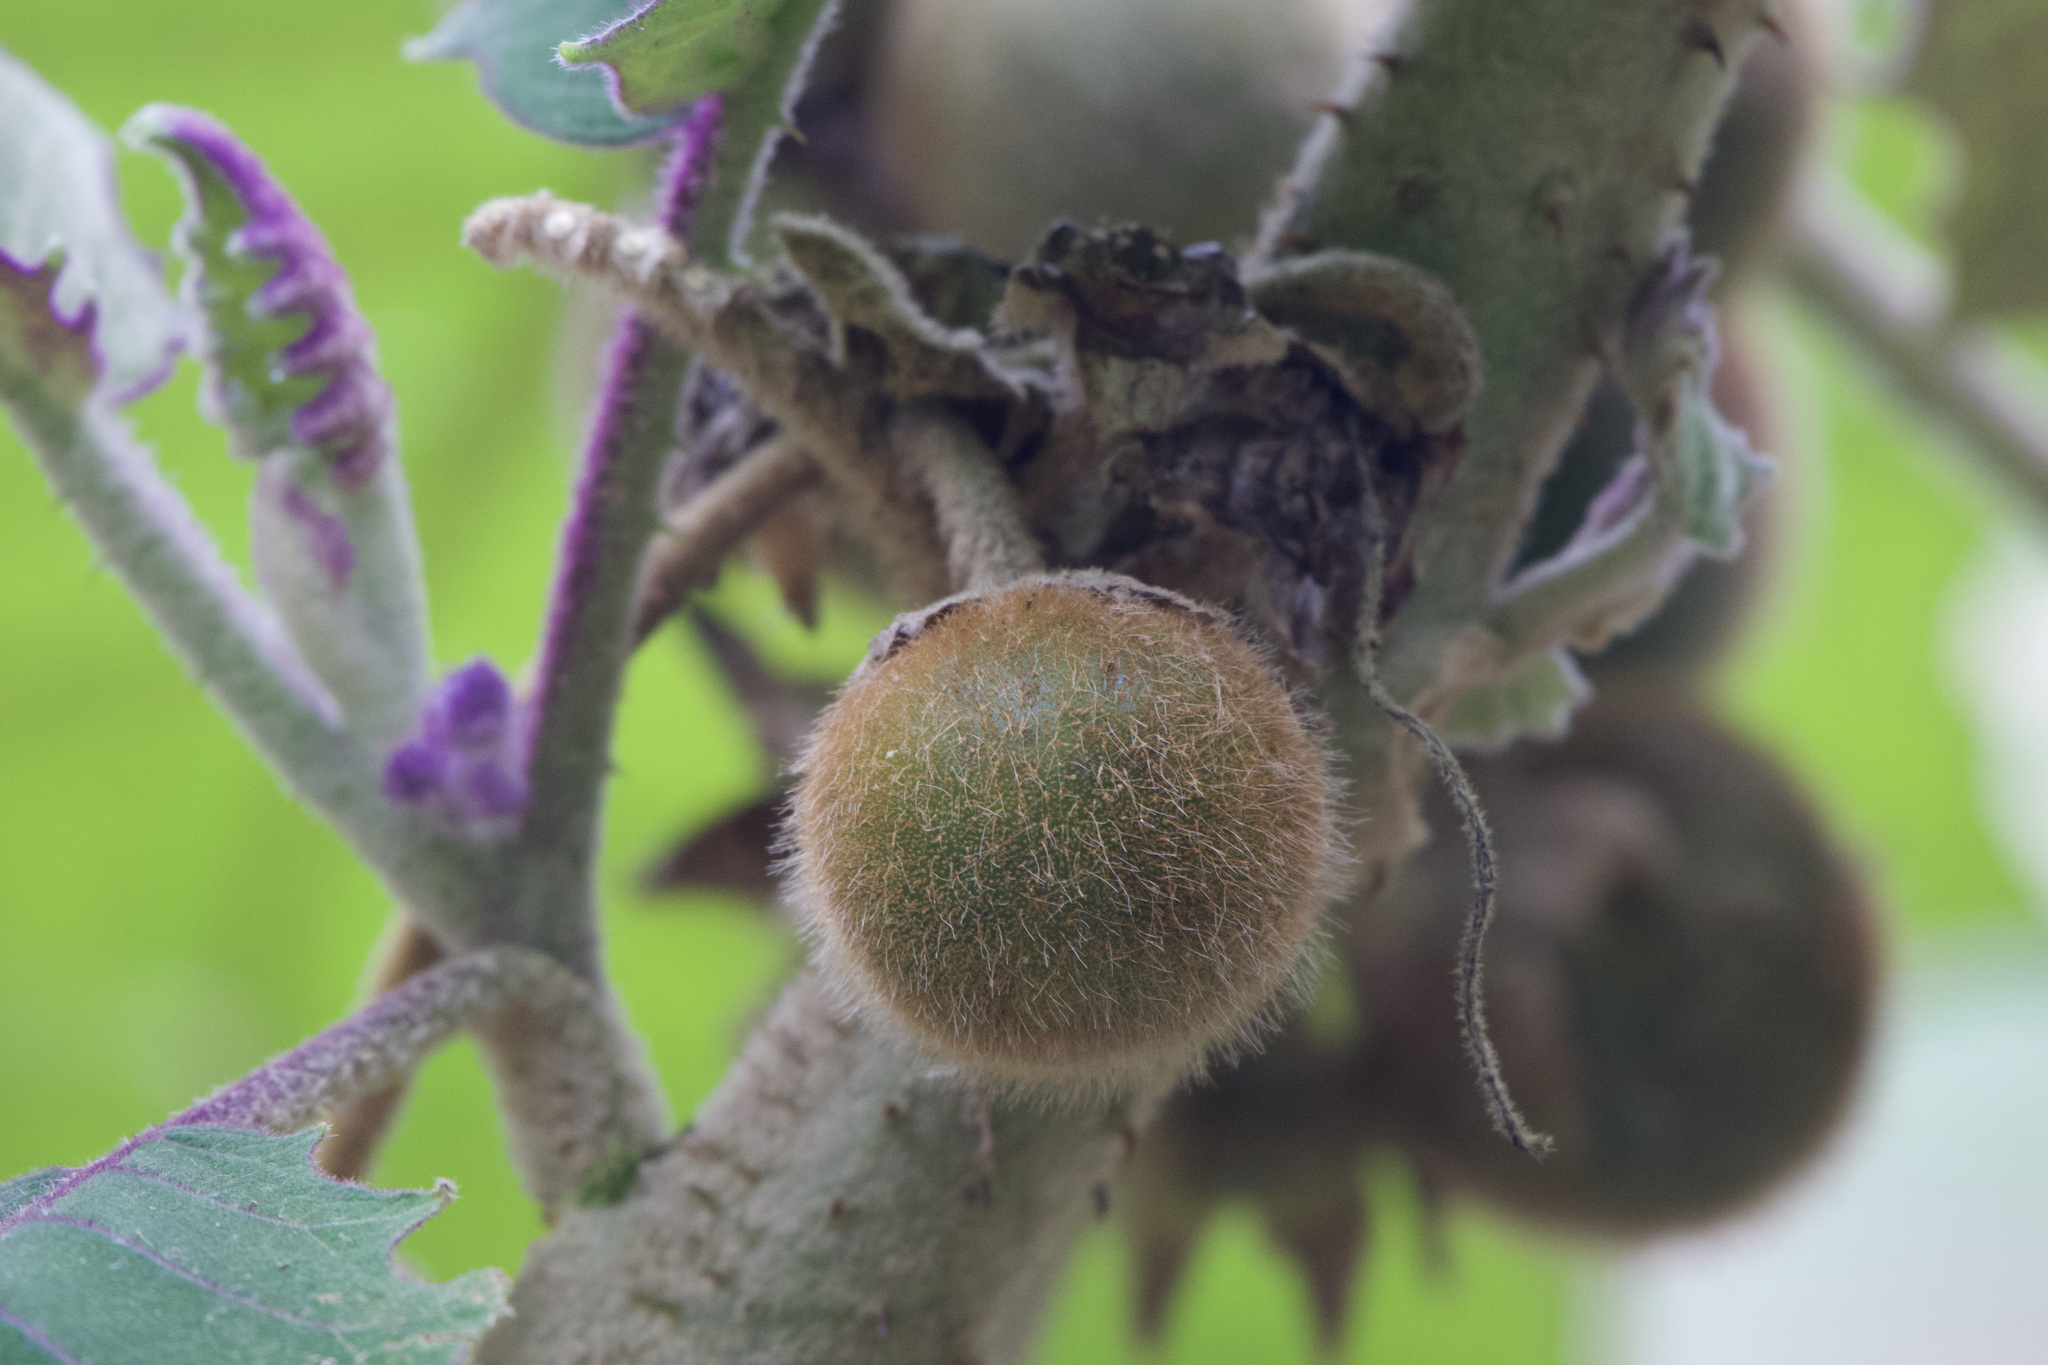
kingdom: Plantae
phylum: Tracheophyta
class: Magnoliopsida
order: Solanales
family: Solanaceae
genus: Solanum
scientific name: Solanum quitoense
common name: Quito-orange
